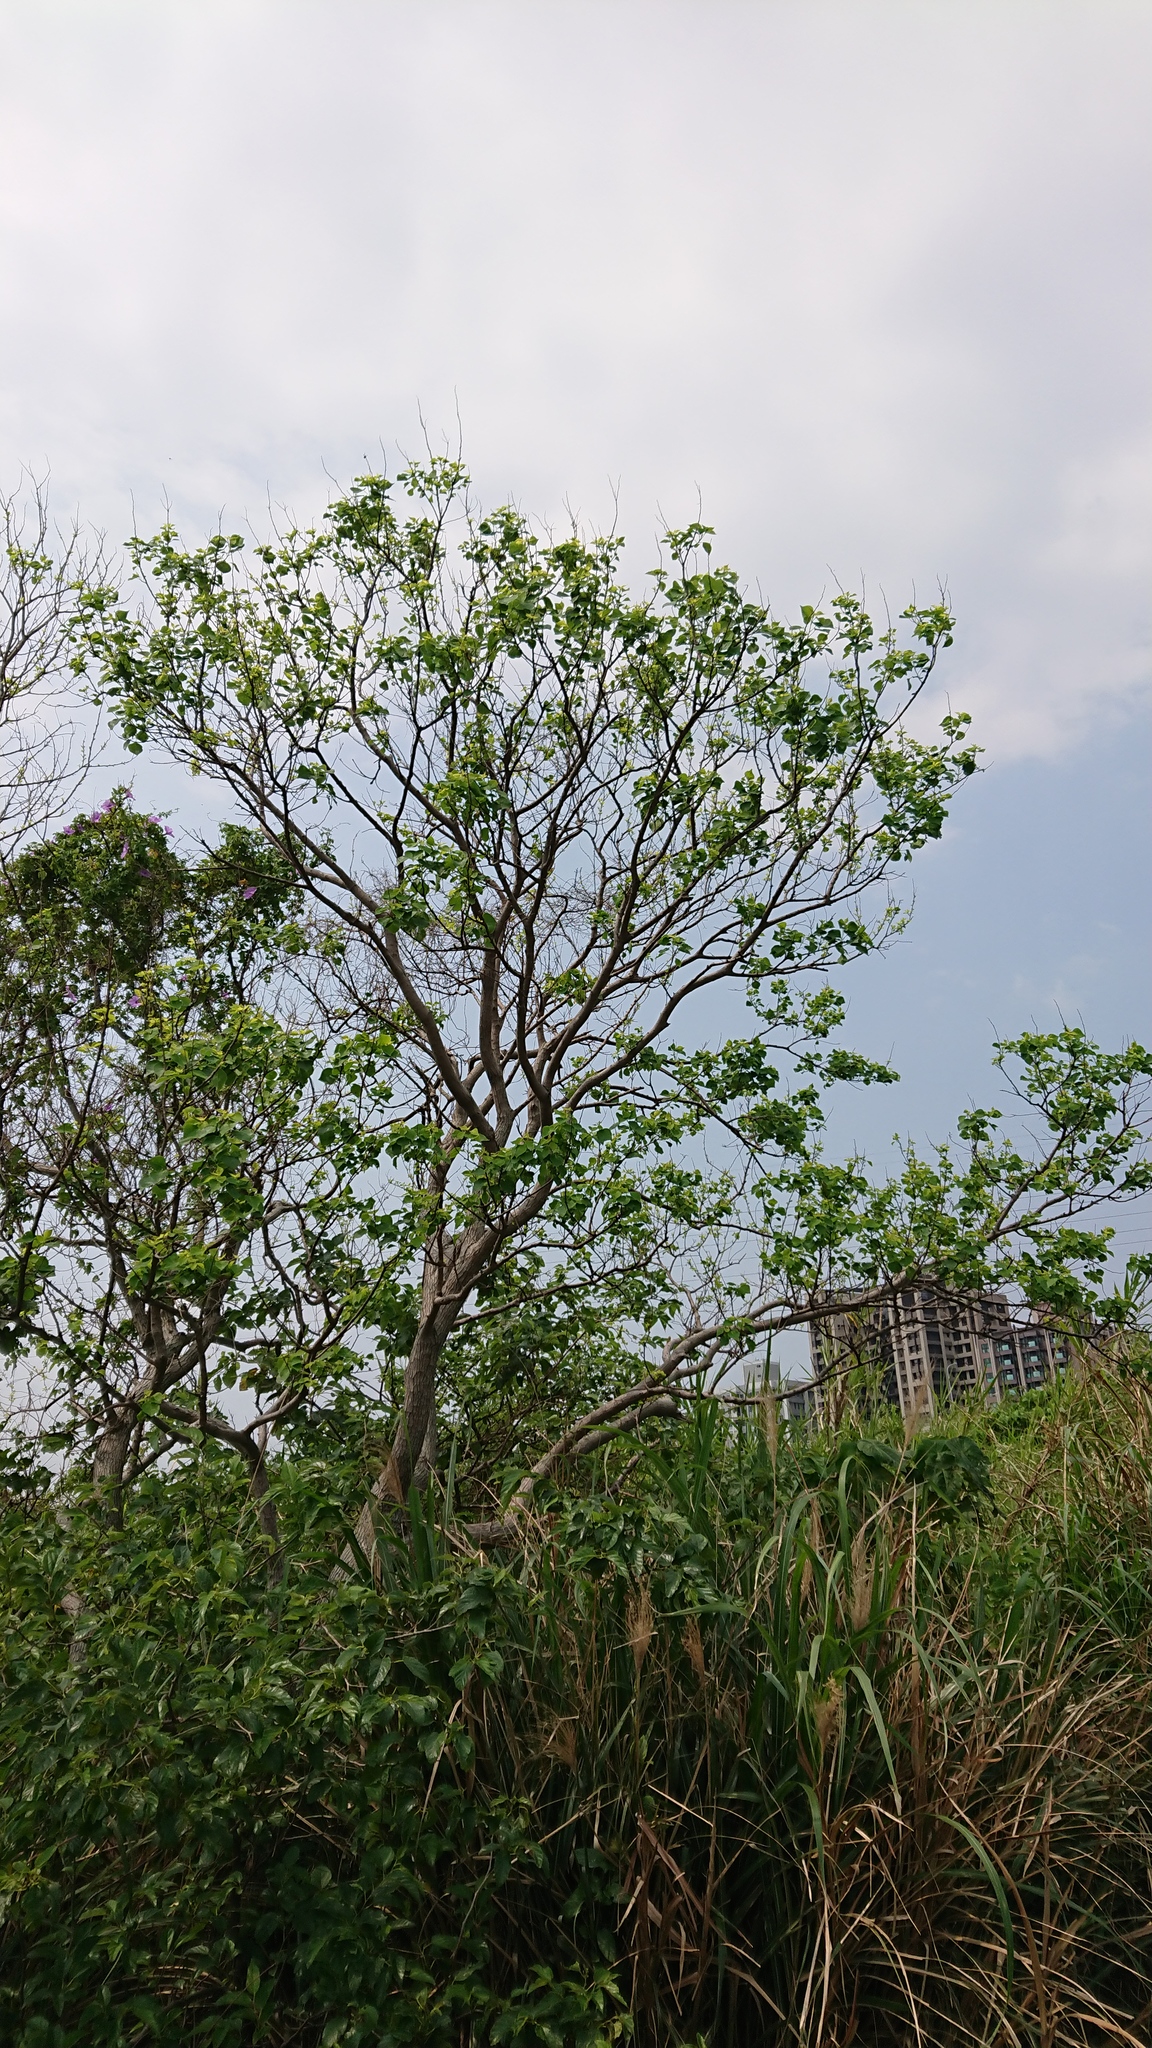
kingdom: Plantae
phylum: Tracheophyta
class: Magnoliopsida
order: Malpighiales
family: Euphorbiaceae
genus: Triadica
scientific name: Triadica sebifera
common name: Chinese tallow
